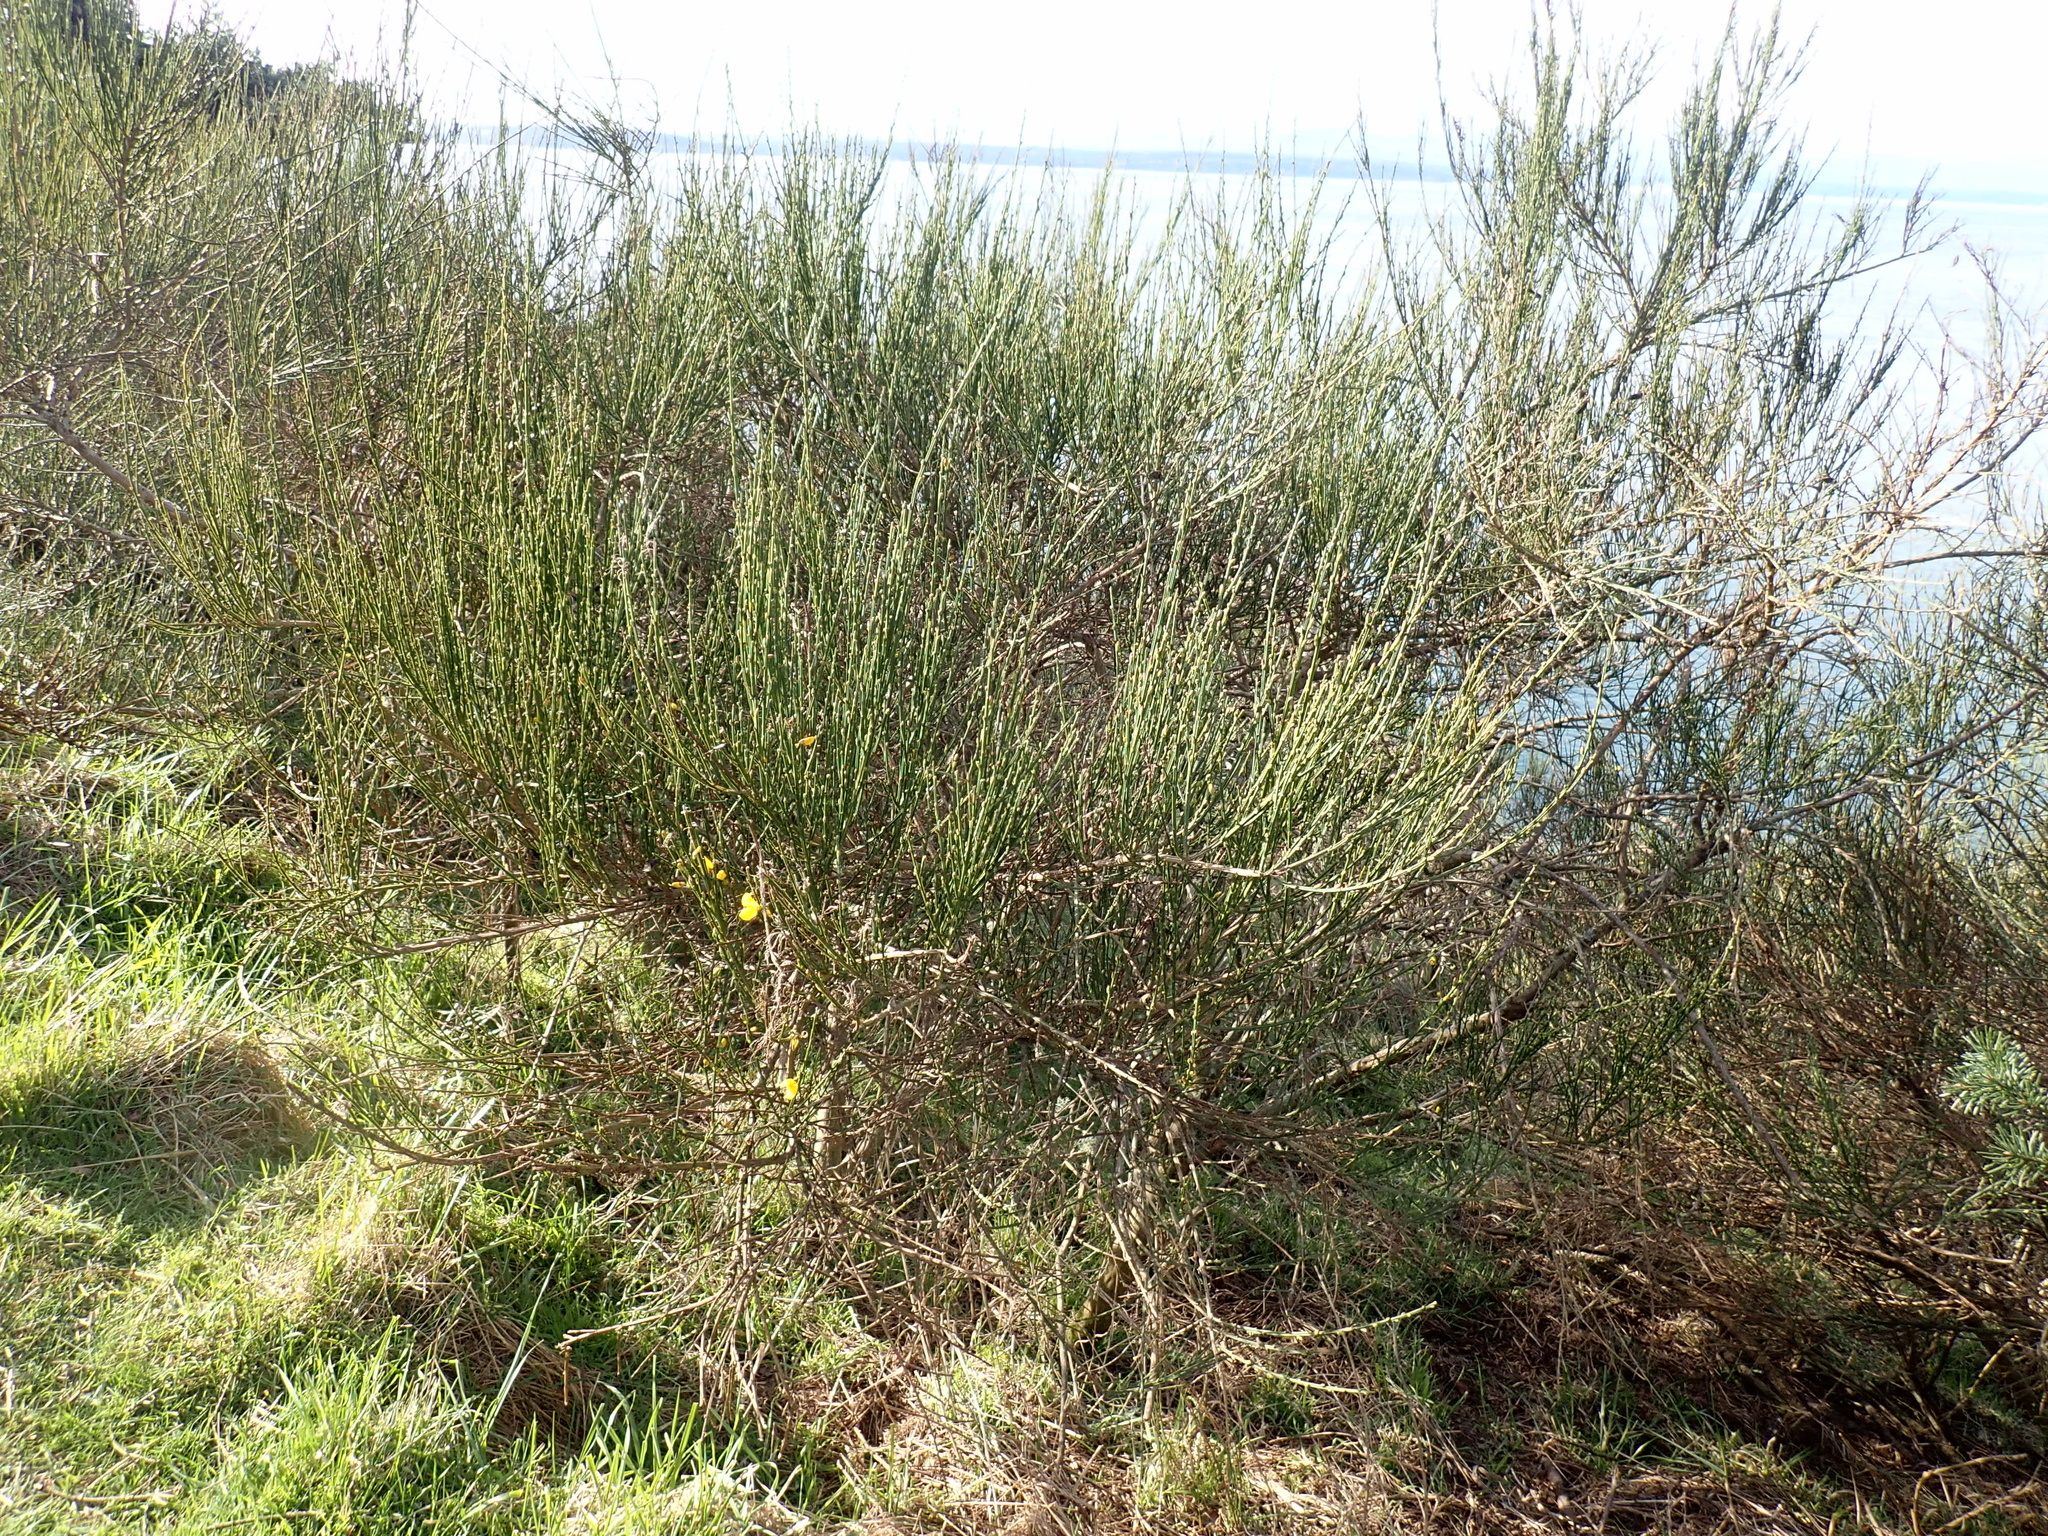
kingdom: Plantae
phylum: Tracheophyta
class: Magnoliopsida
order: Fabales
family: Fabaceae
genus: Cytisus
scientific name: Cytisus scoparius
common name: Scotch broom
